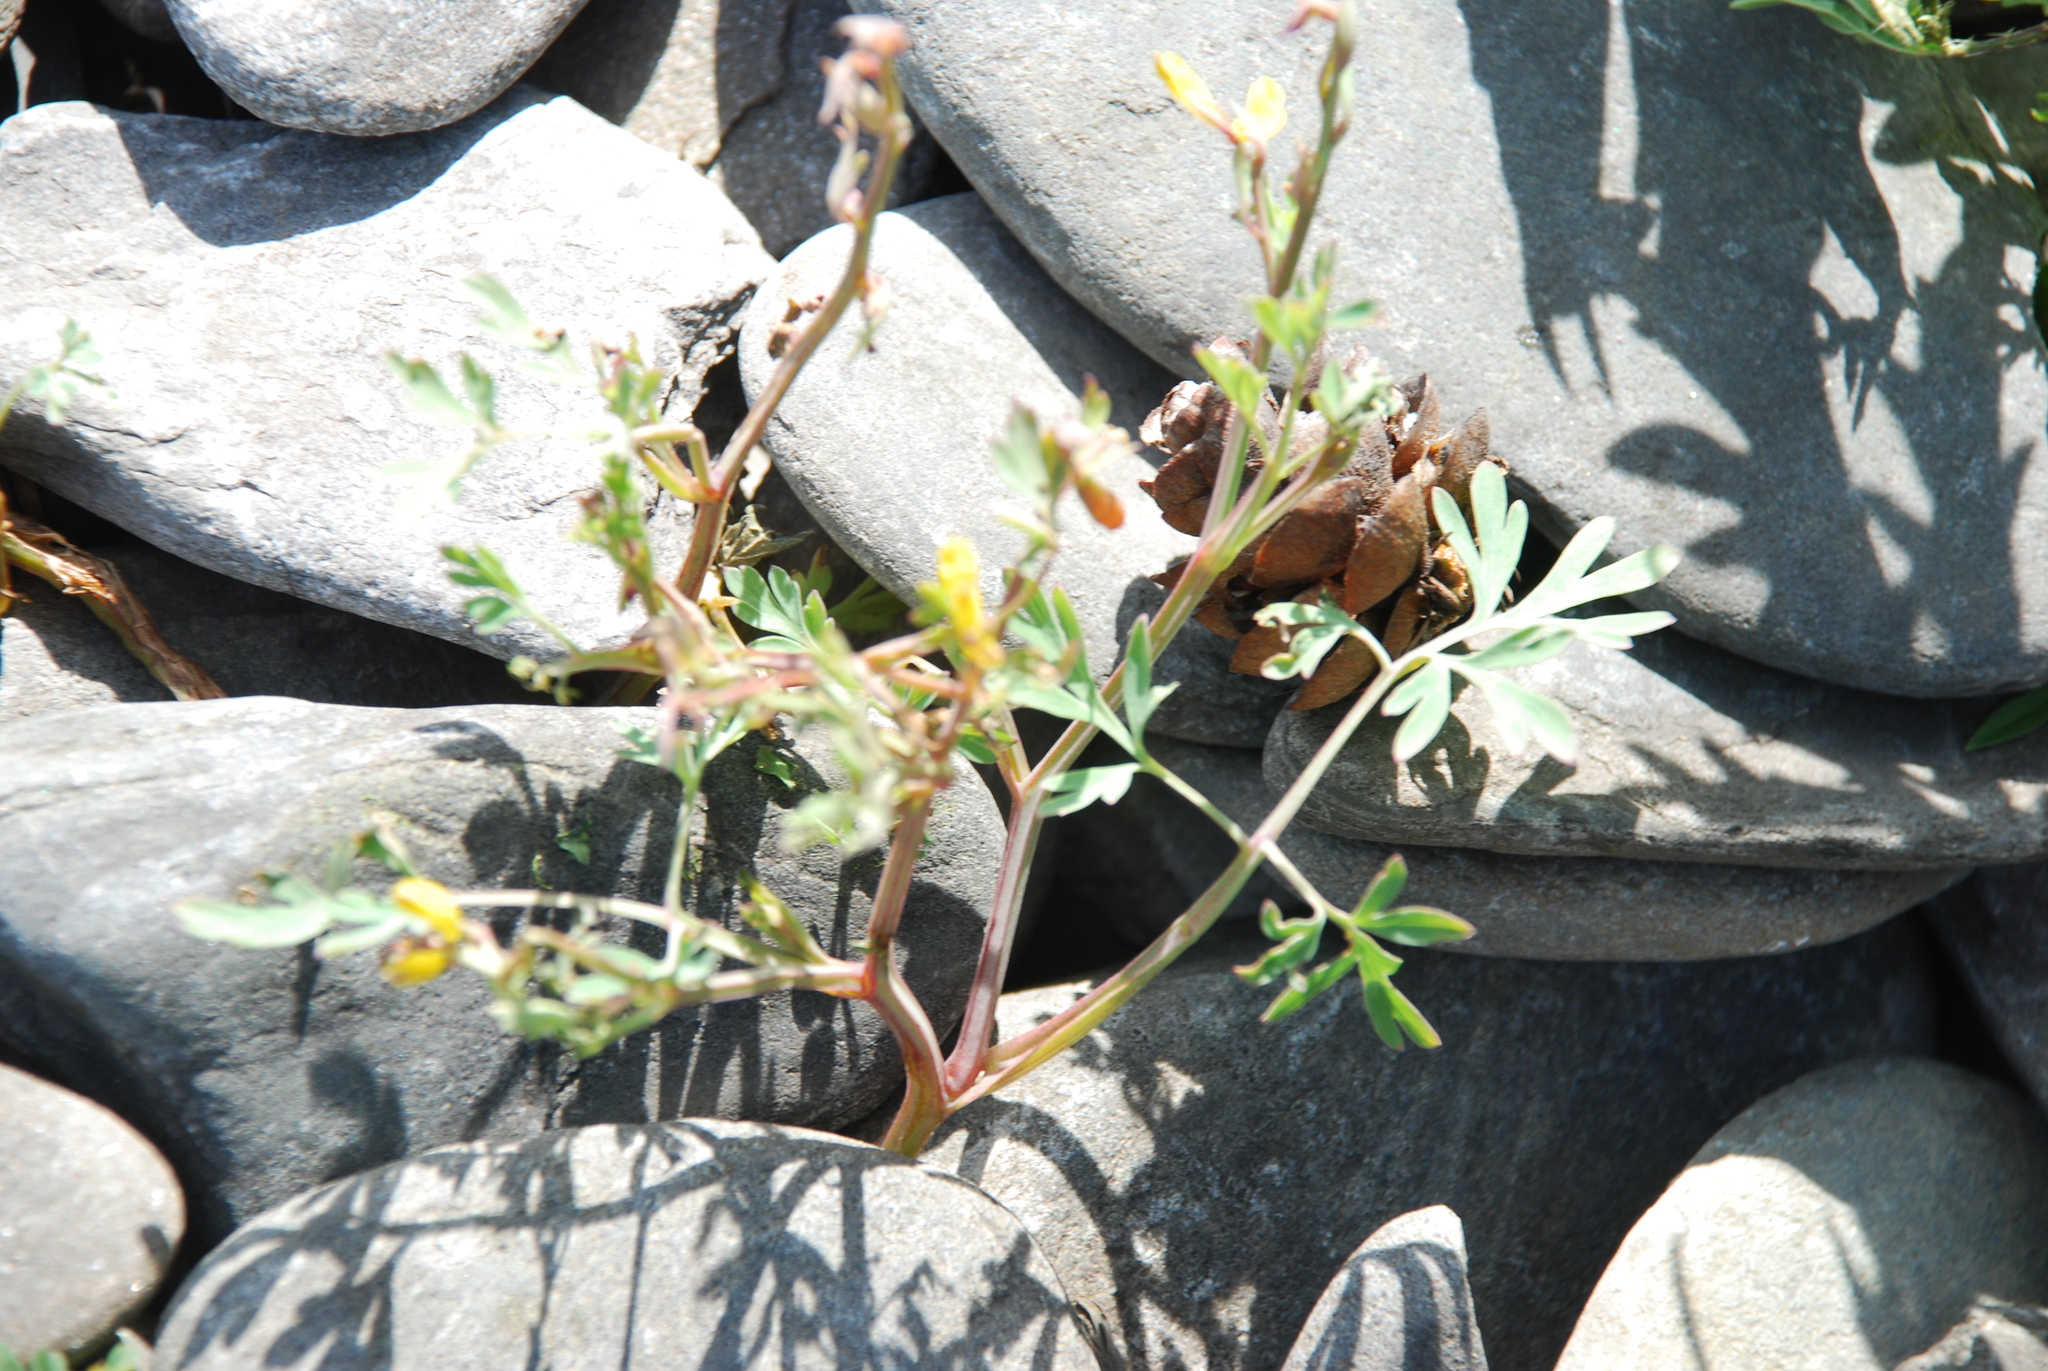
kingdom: Plantae
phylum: Tracheophyta
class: Magnoliopsida
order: Ranunculales
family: Papaveraceae
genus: Corydalis
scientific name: Corydalis impatiens
